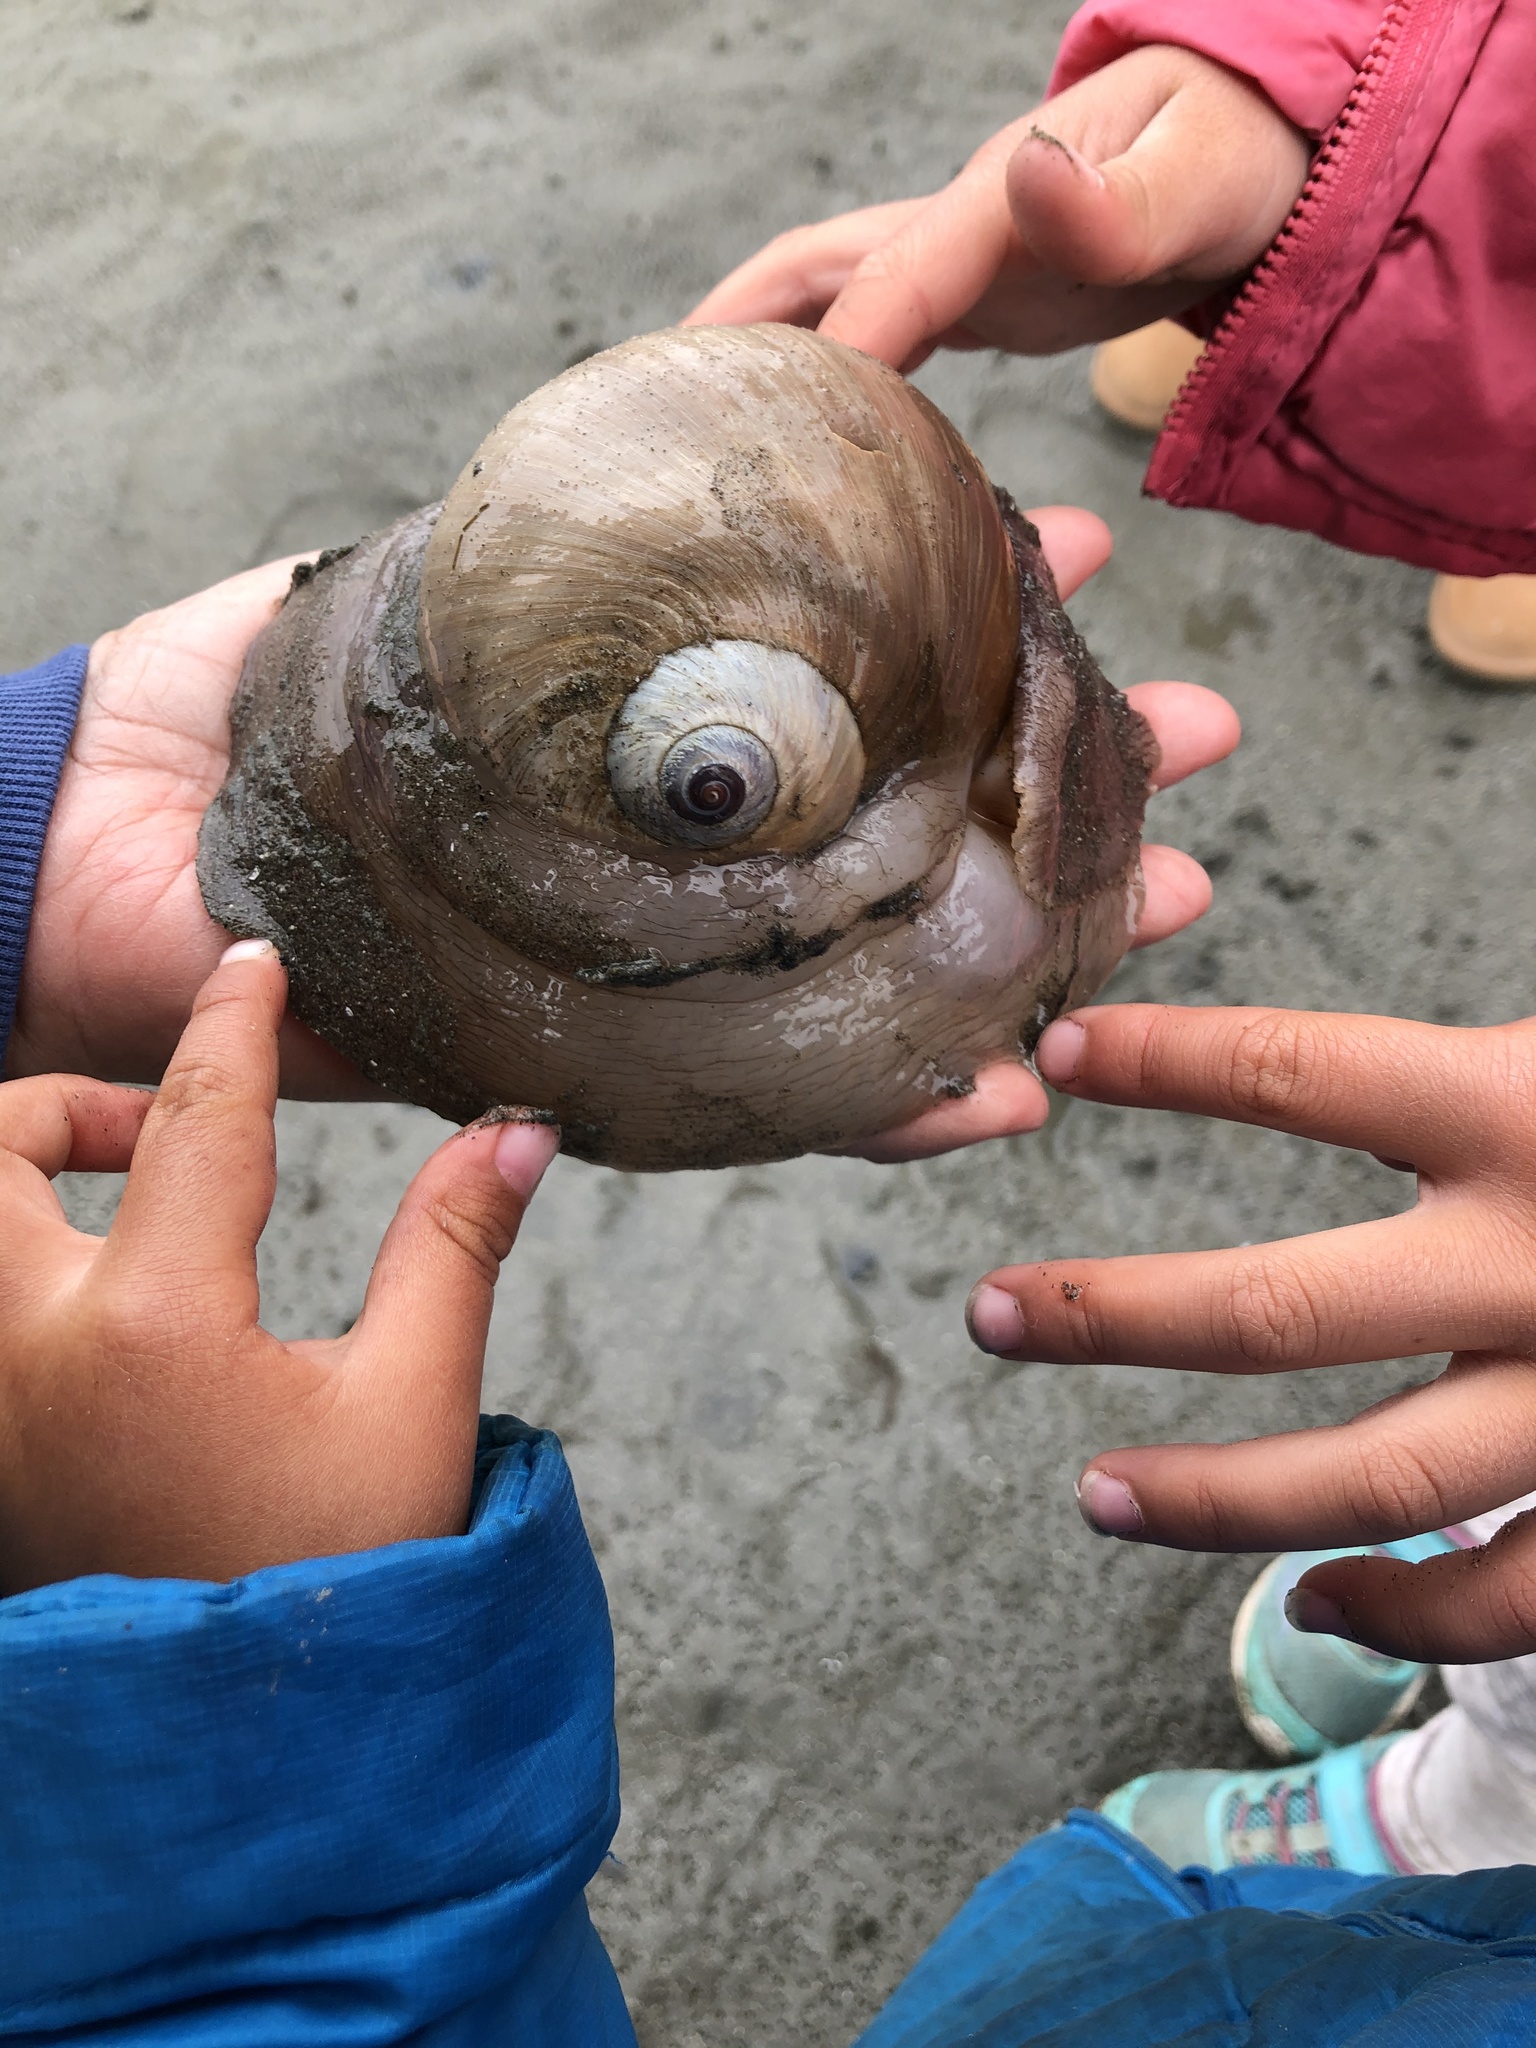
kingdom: Animalia
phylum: Mollusca
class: Gastropoda
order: Littorinimorpha
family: Naticidae
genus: Neverita
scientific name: Neverita lewisii
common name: Lewis' moonsnail
